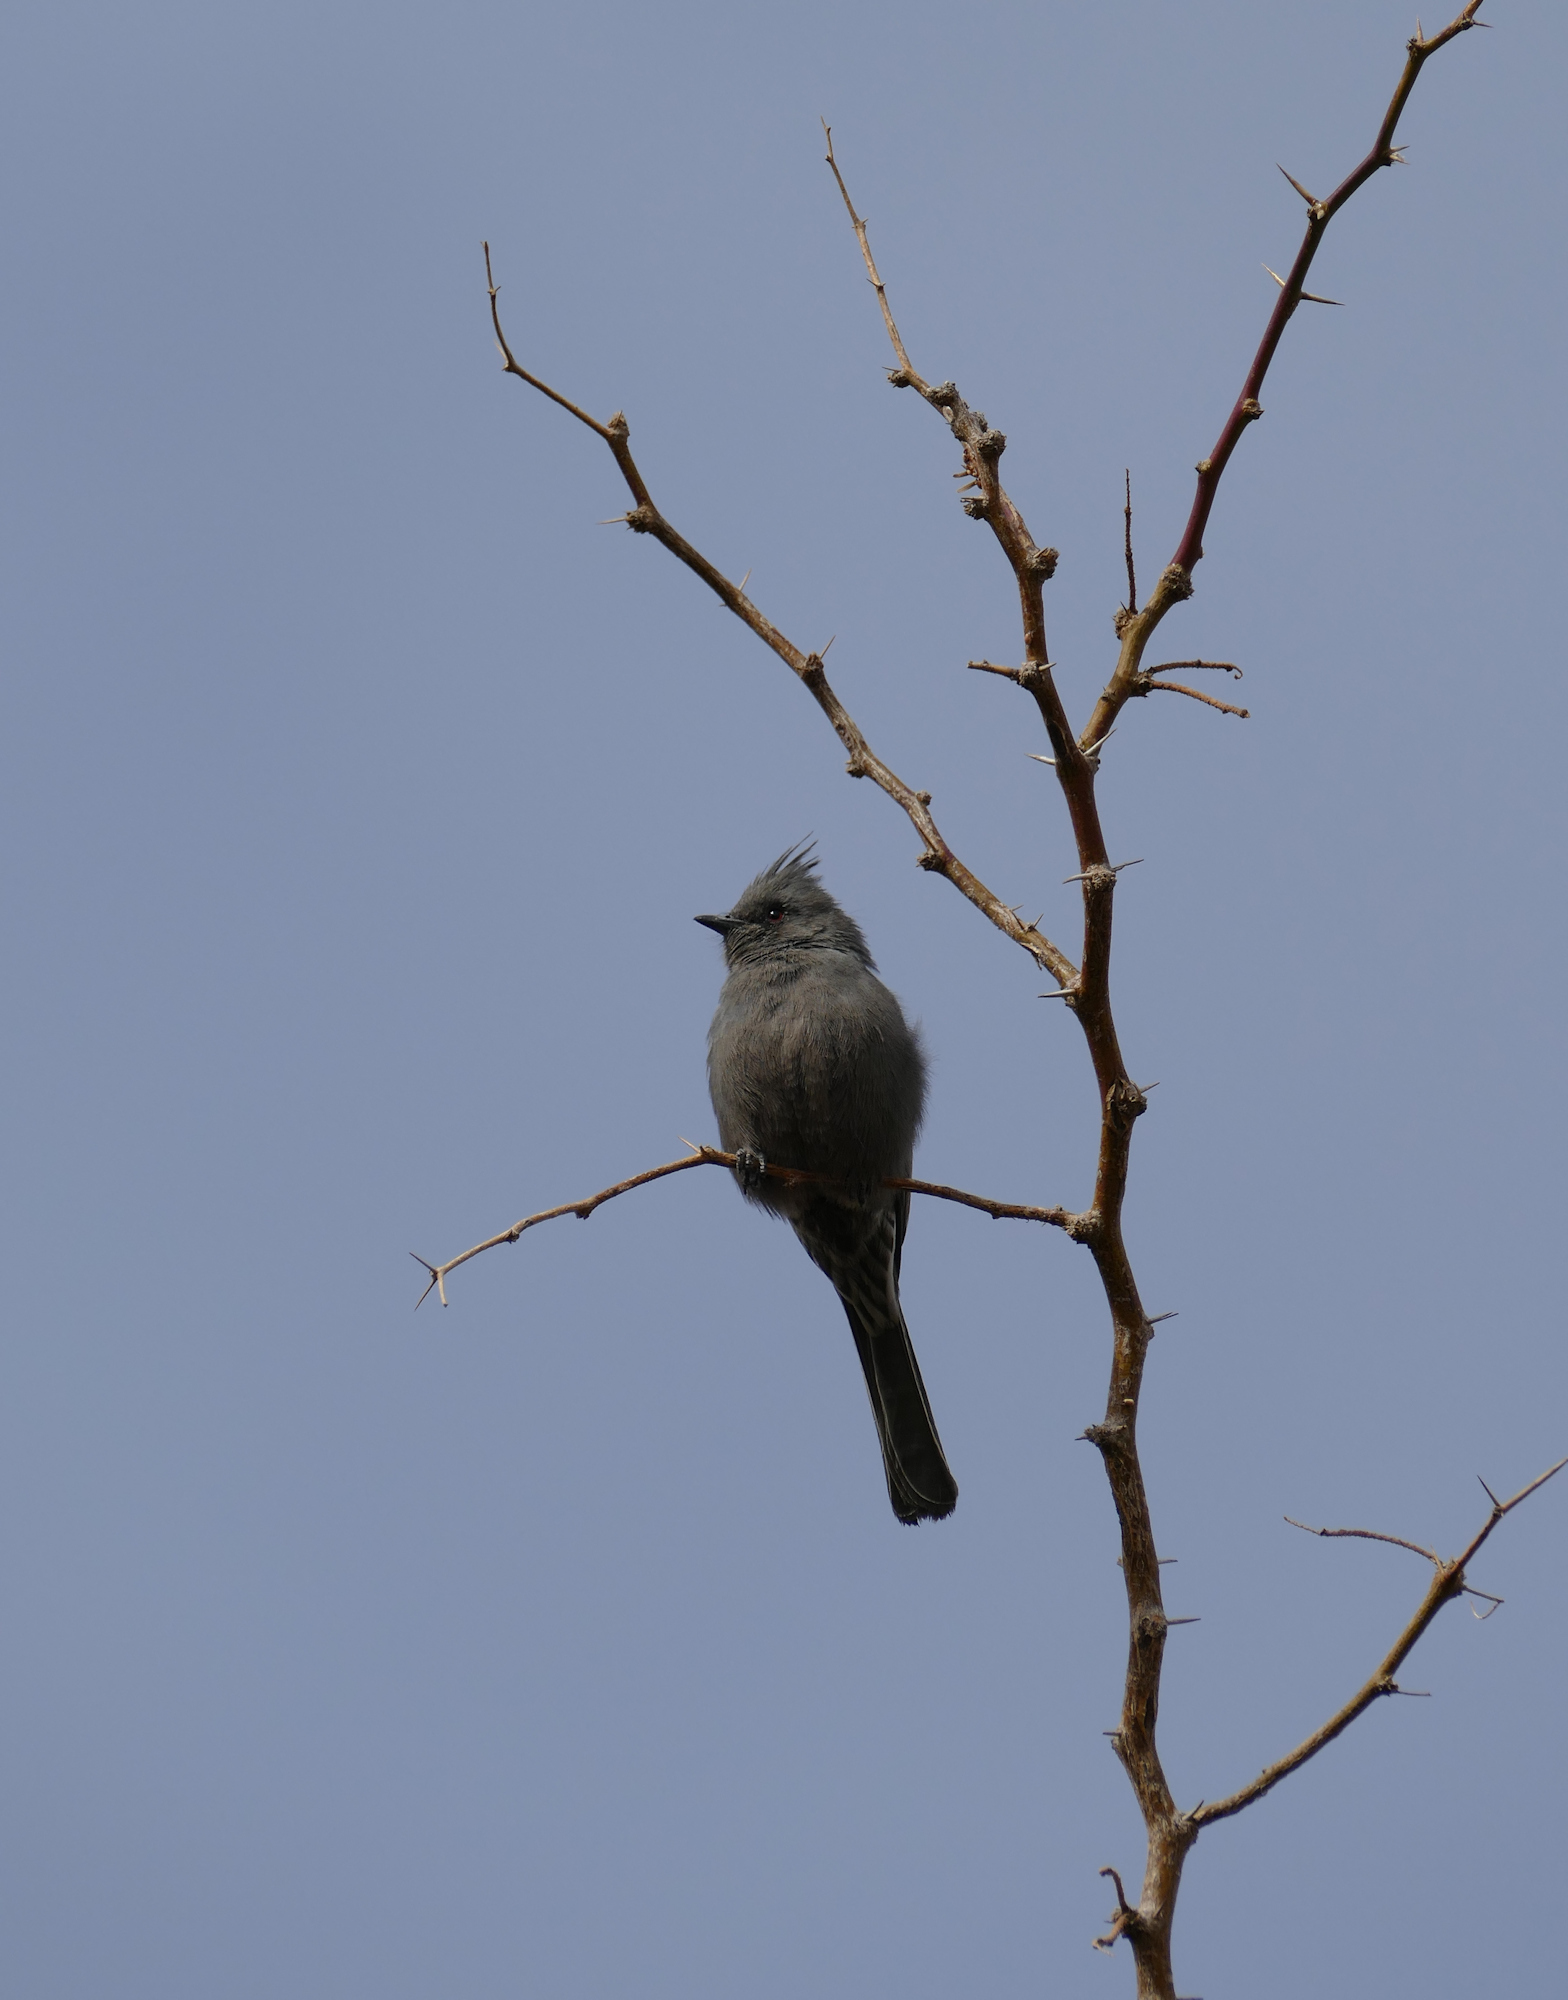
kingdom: Animalia
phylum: Chordata
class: Aves
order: Passeriformes
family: Ptilogonatidae
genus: Phainopepla
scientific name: Phainopepla nitens
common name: Phainopepla
